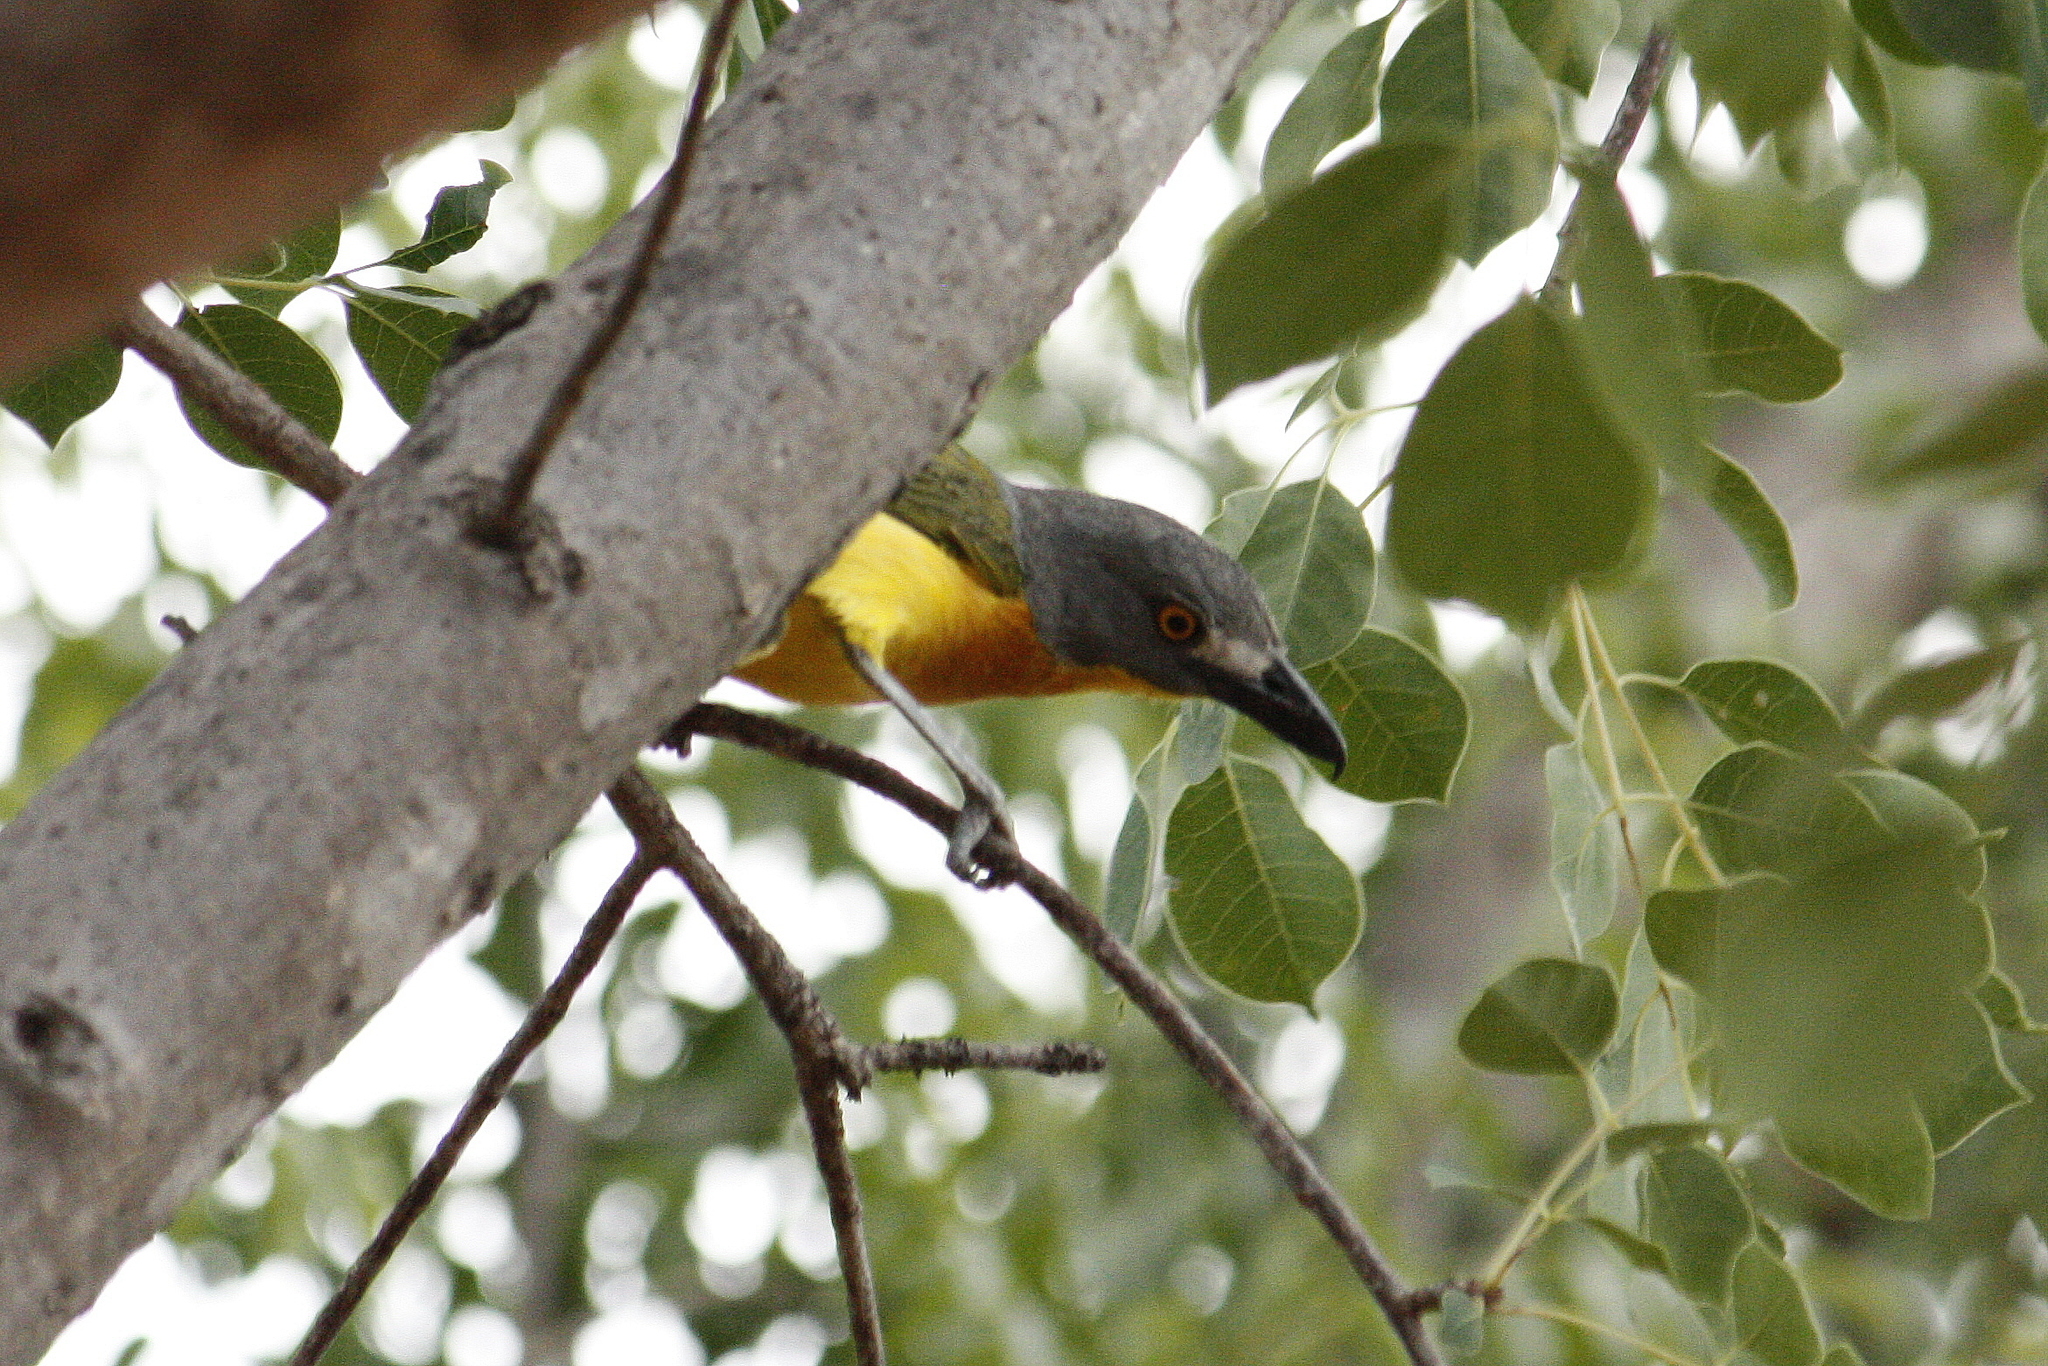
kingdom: Animalia
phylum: Chordata
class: Aves
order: Passeriformes
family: Malaconotidae
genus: Malaconotus
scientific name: Malaconotus blanchoti
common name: Grey-headed bushshrike
